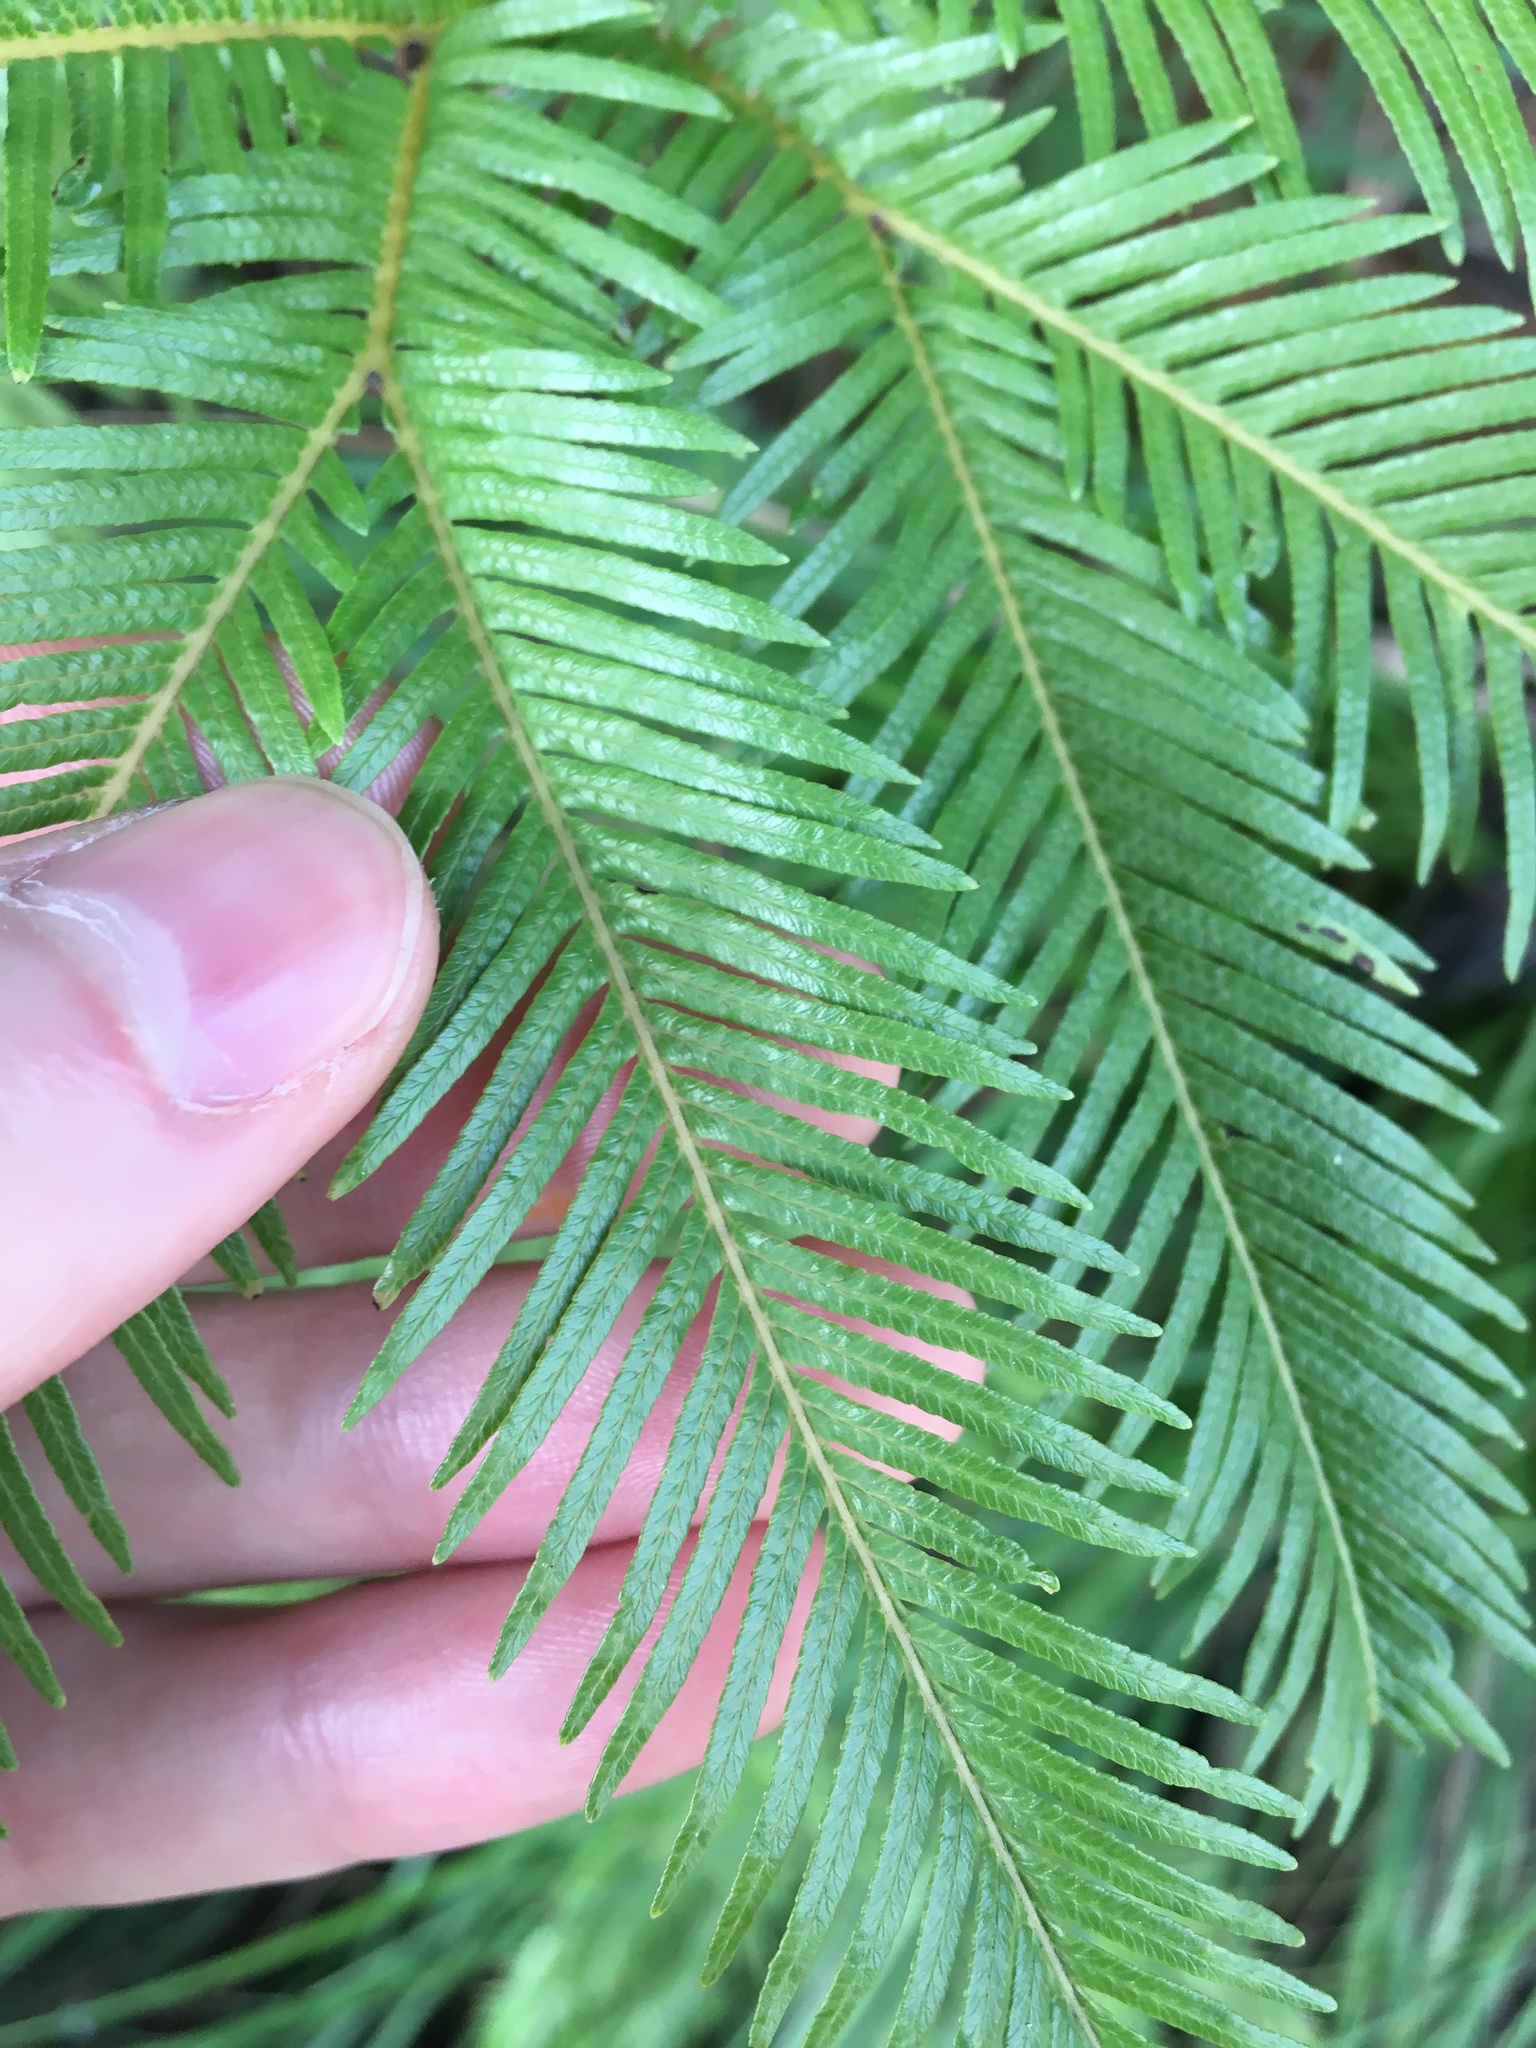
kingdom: Plantae
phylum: Tracheophyta
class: Polypodiopsida
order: Gleicheniales
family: Gleicheniaceae
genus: Sticherus
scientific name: Sticherus flabellatus
